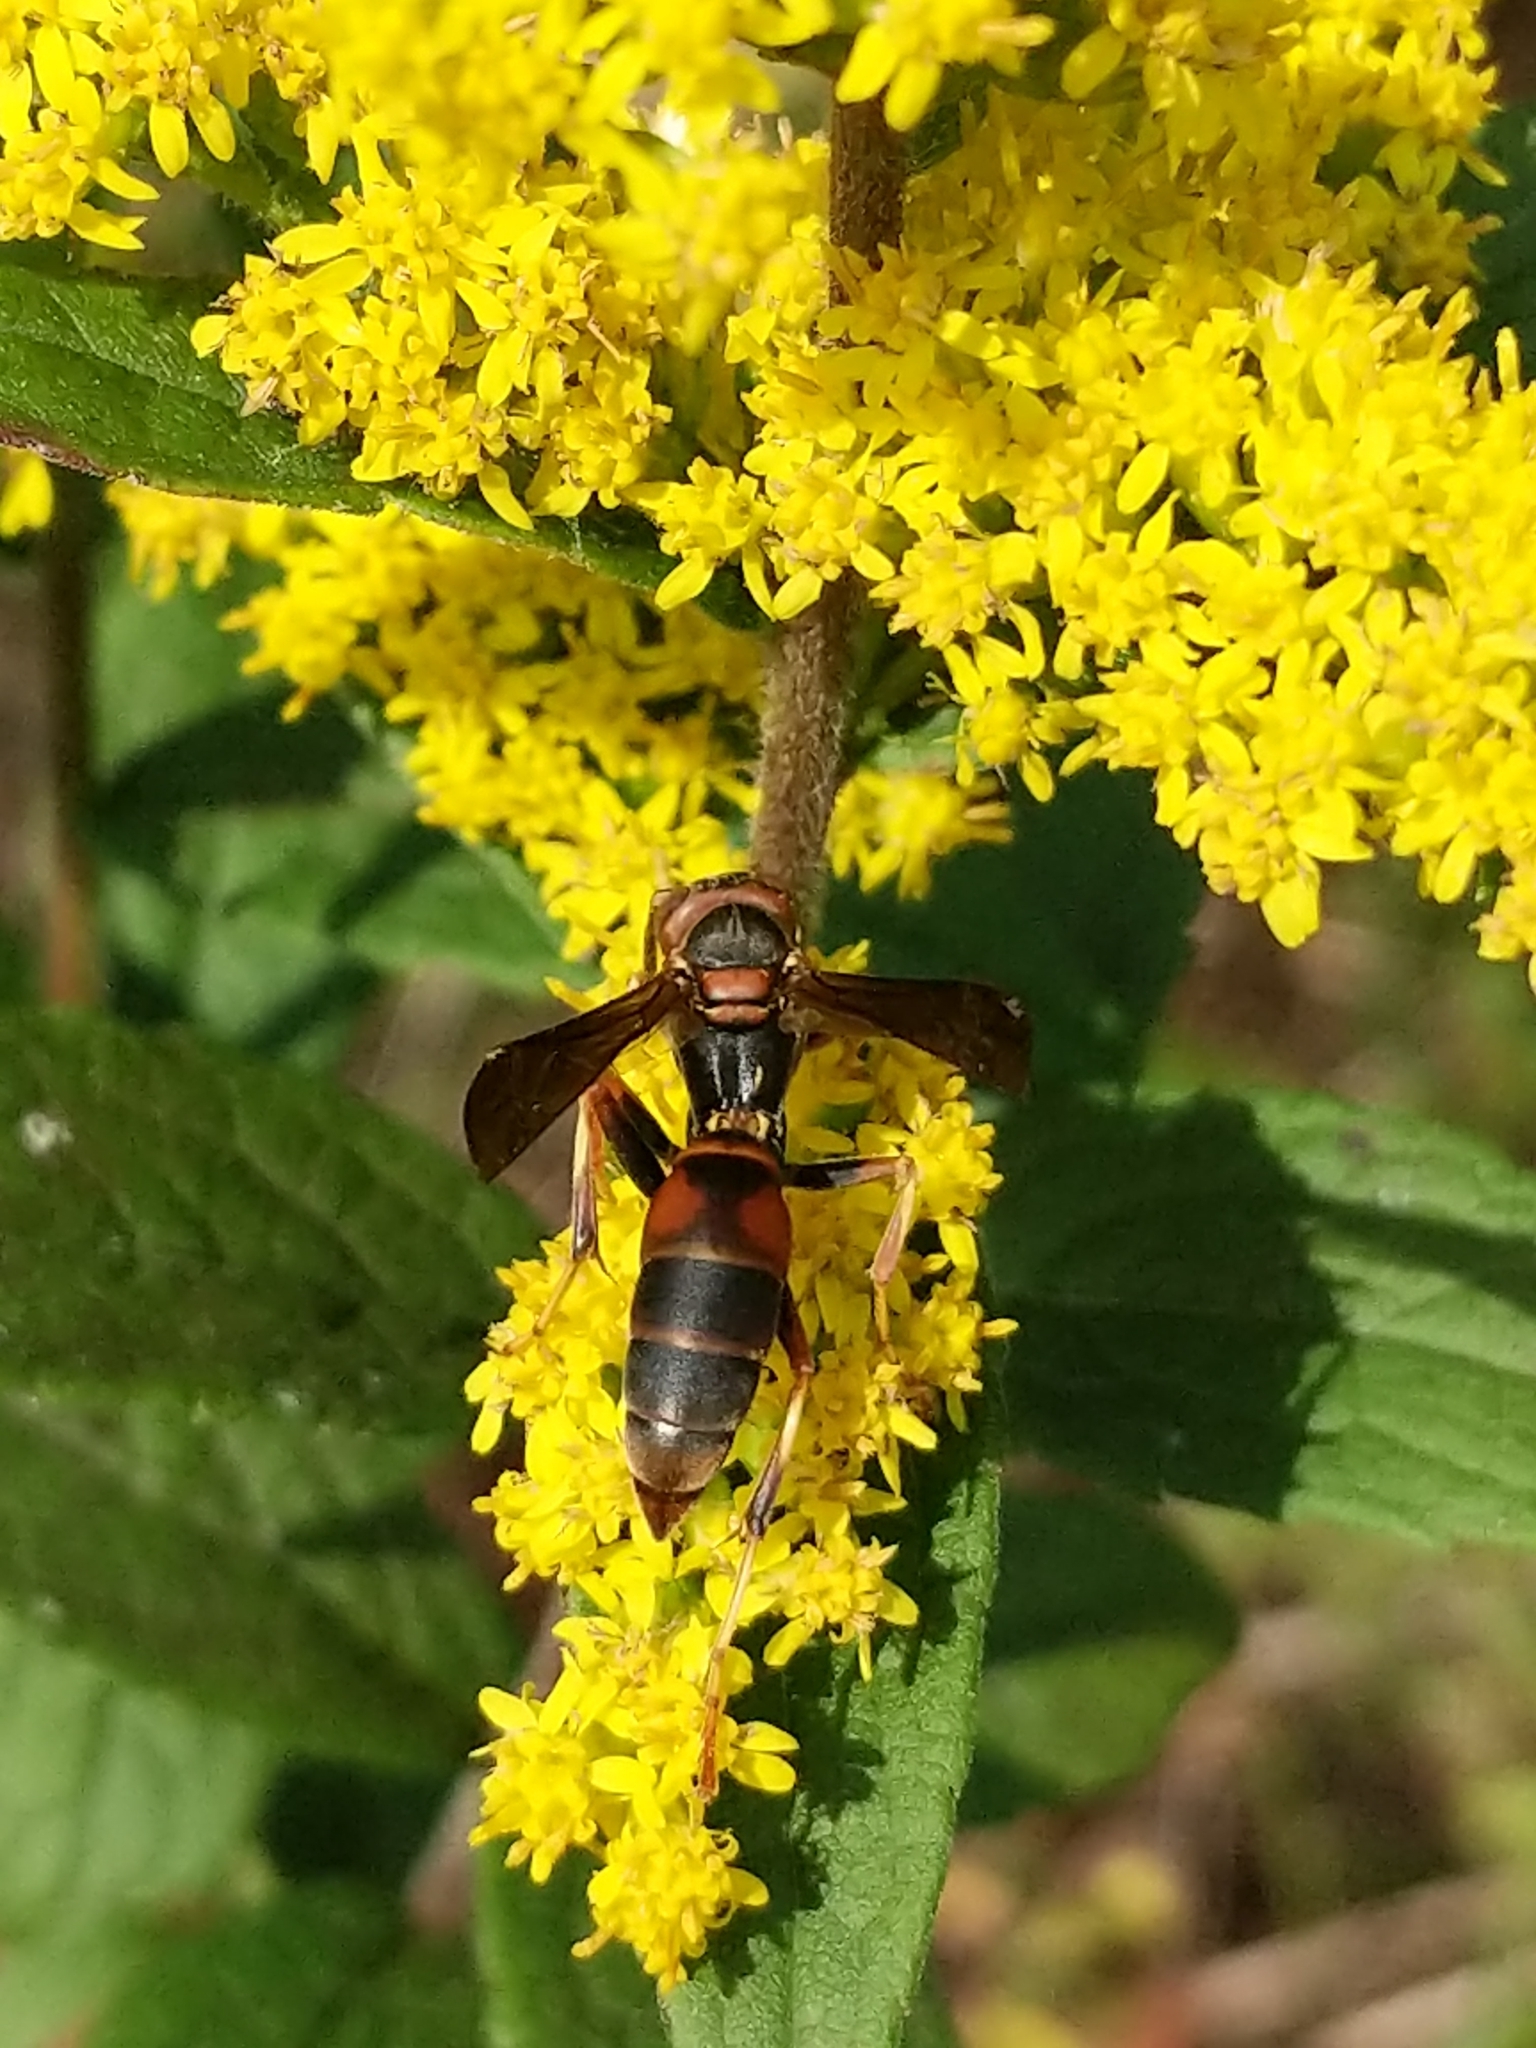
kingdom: Animalia
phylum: Arthropoda
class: Insecta
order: Hymenoptera
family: Eumenidae
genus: Polistes
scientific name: Polistes fuscatus
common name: Dark paper wasp
